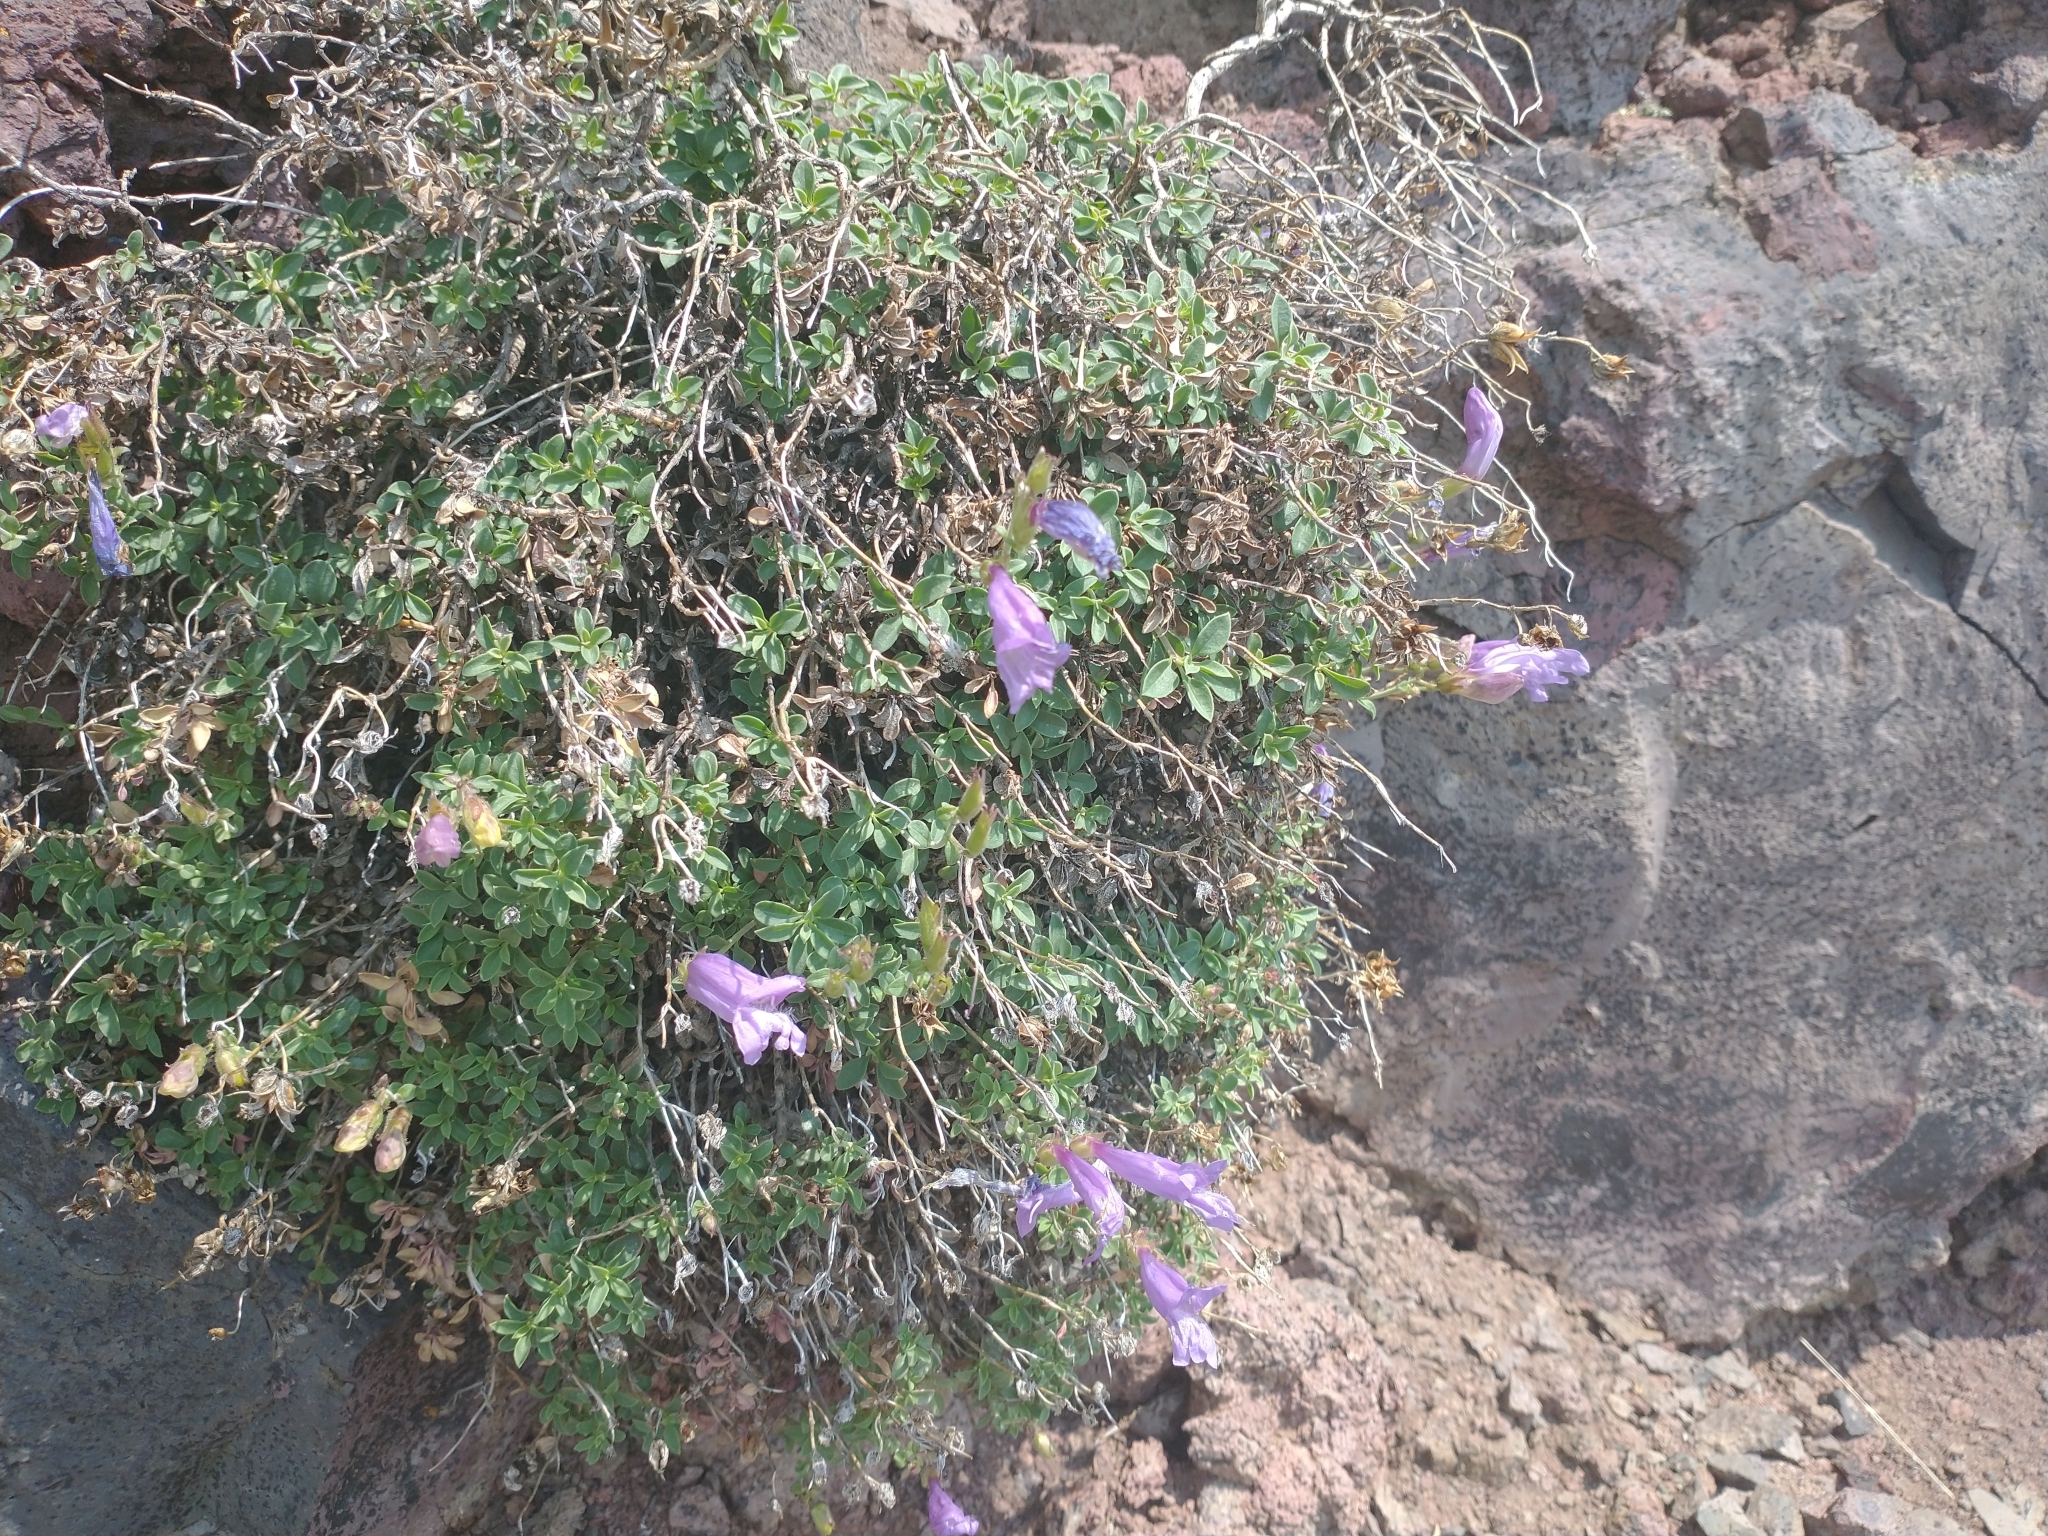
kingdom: Plantae
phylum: Tracheophyta
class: Magnoliopsida
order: Lamiales
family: Plantaginaceae
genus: Penstemon
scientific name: Penstemon davidsonii
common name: Davidson's penstemon
